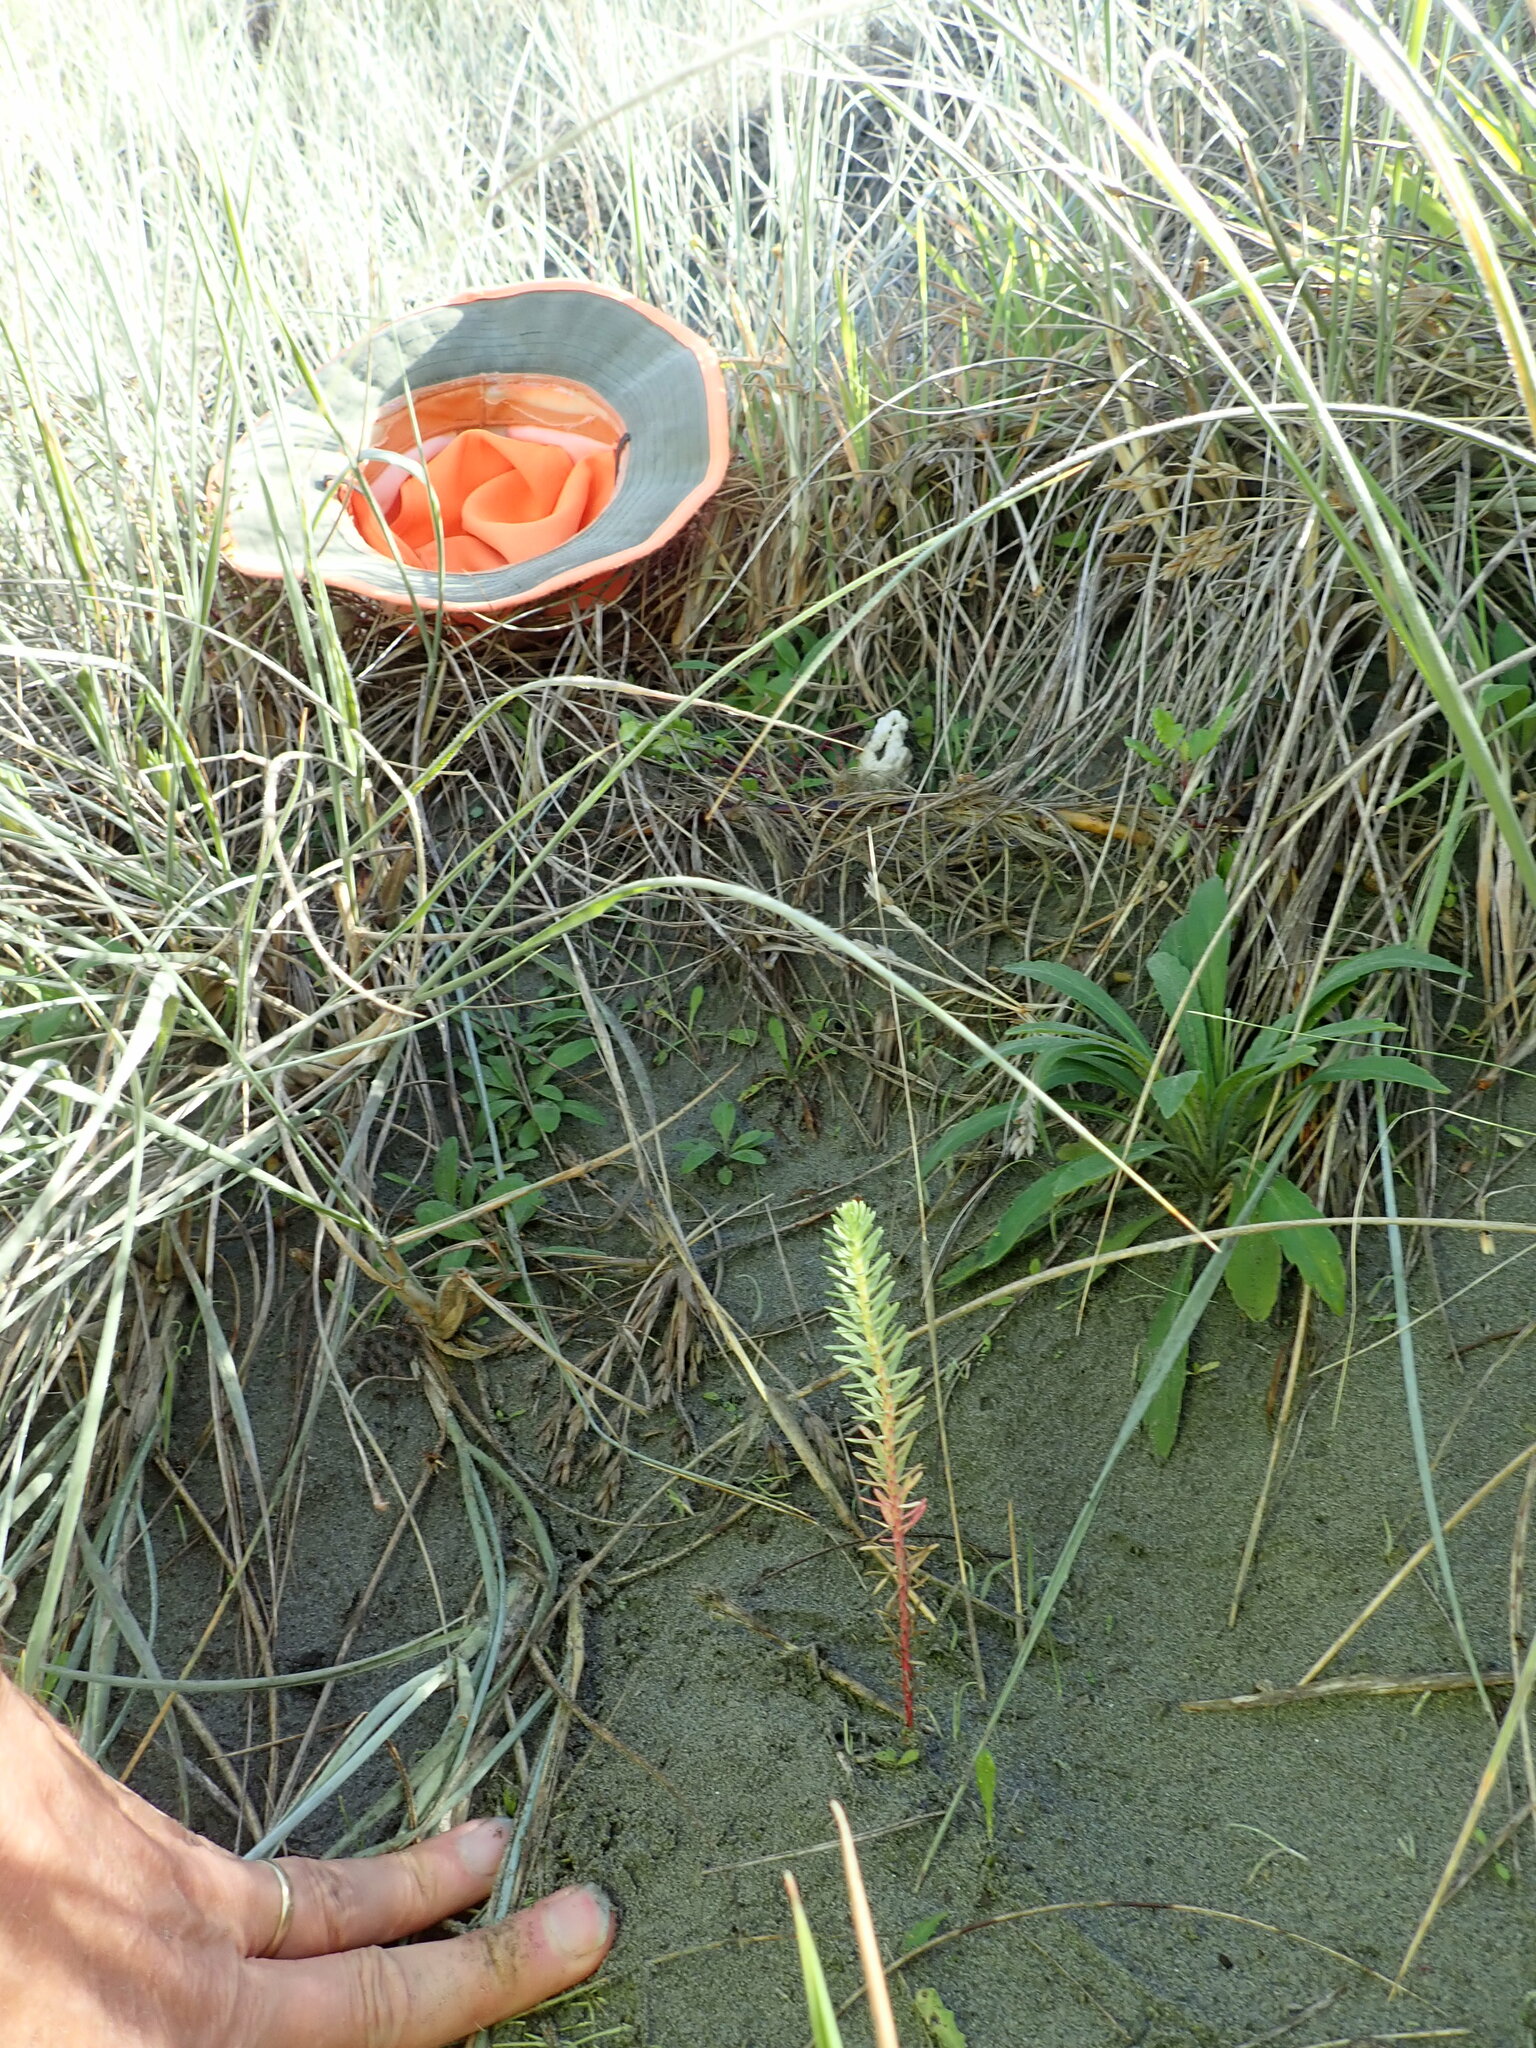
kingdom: Fungi
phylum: Basidiomycota
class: Agaricomycetes
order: Phallales
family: Phallaceae
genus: Ileodictyon
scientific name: Ileodictyon cibarium
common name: Basket fungus
